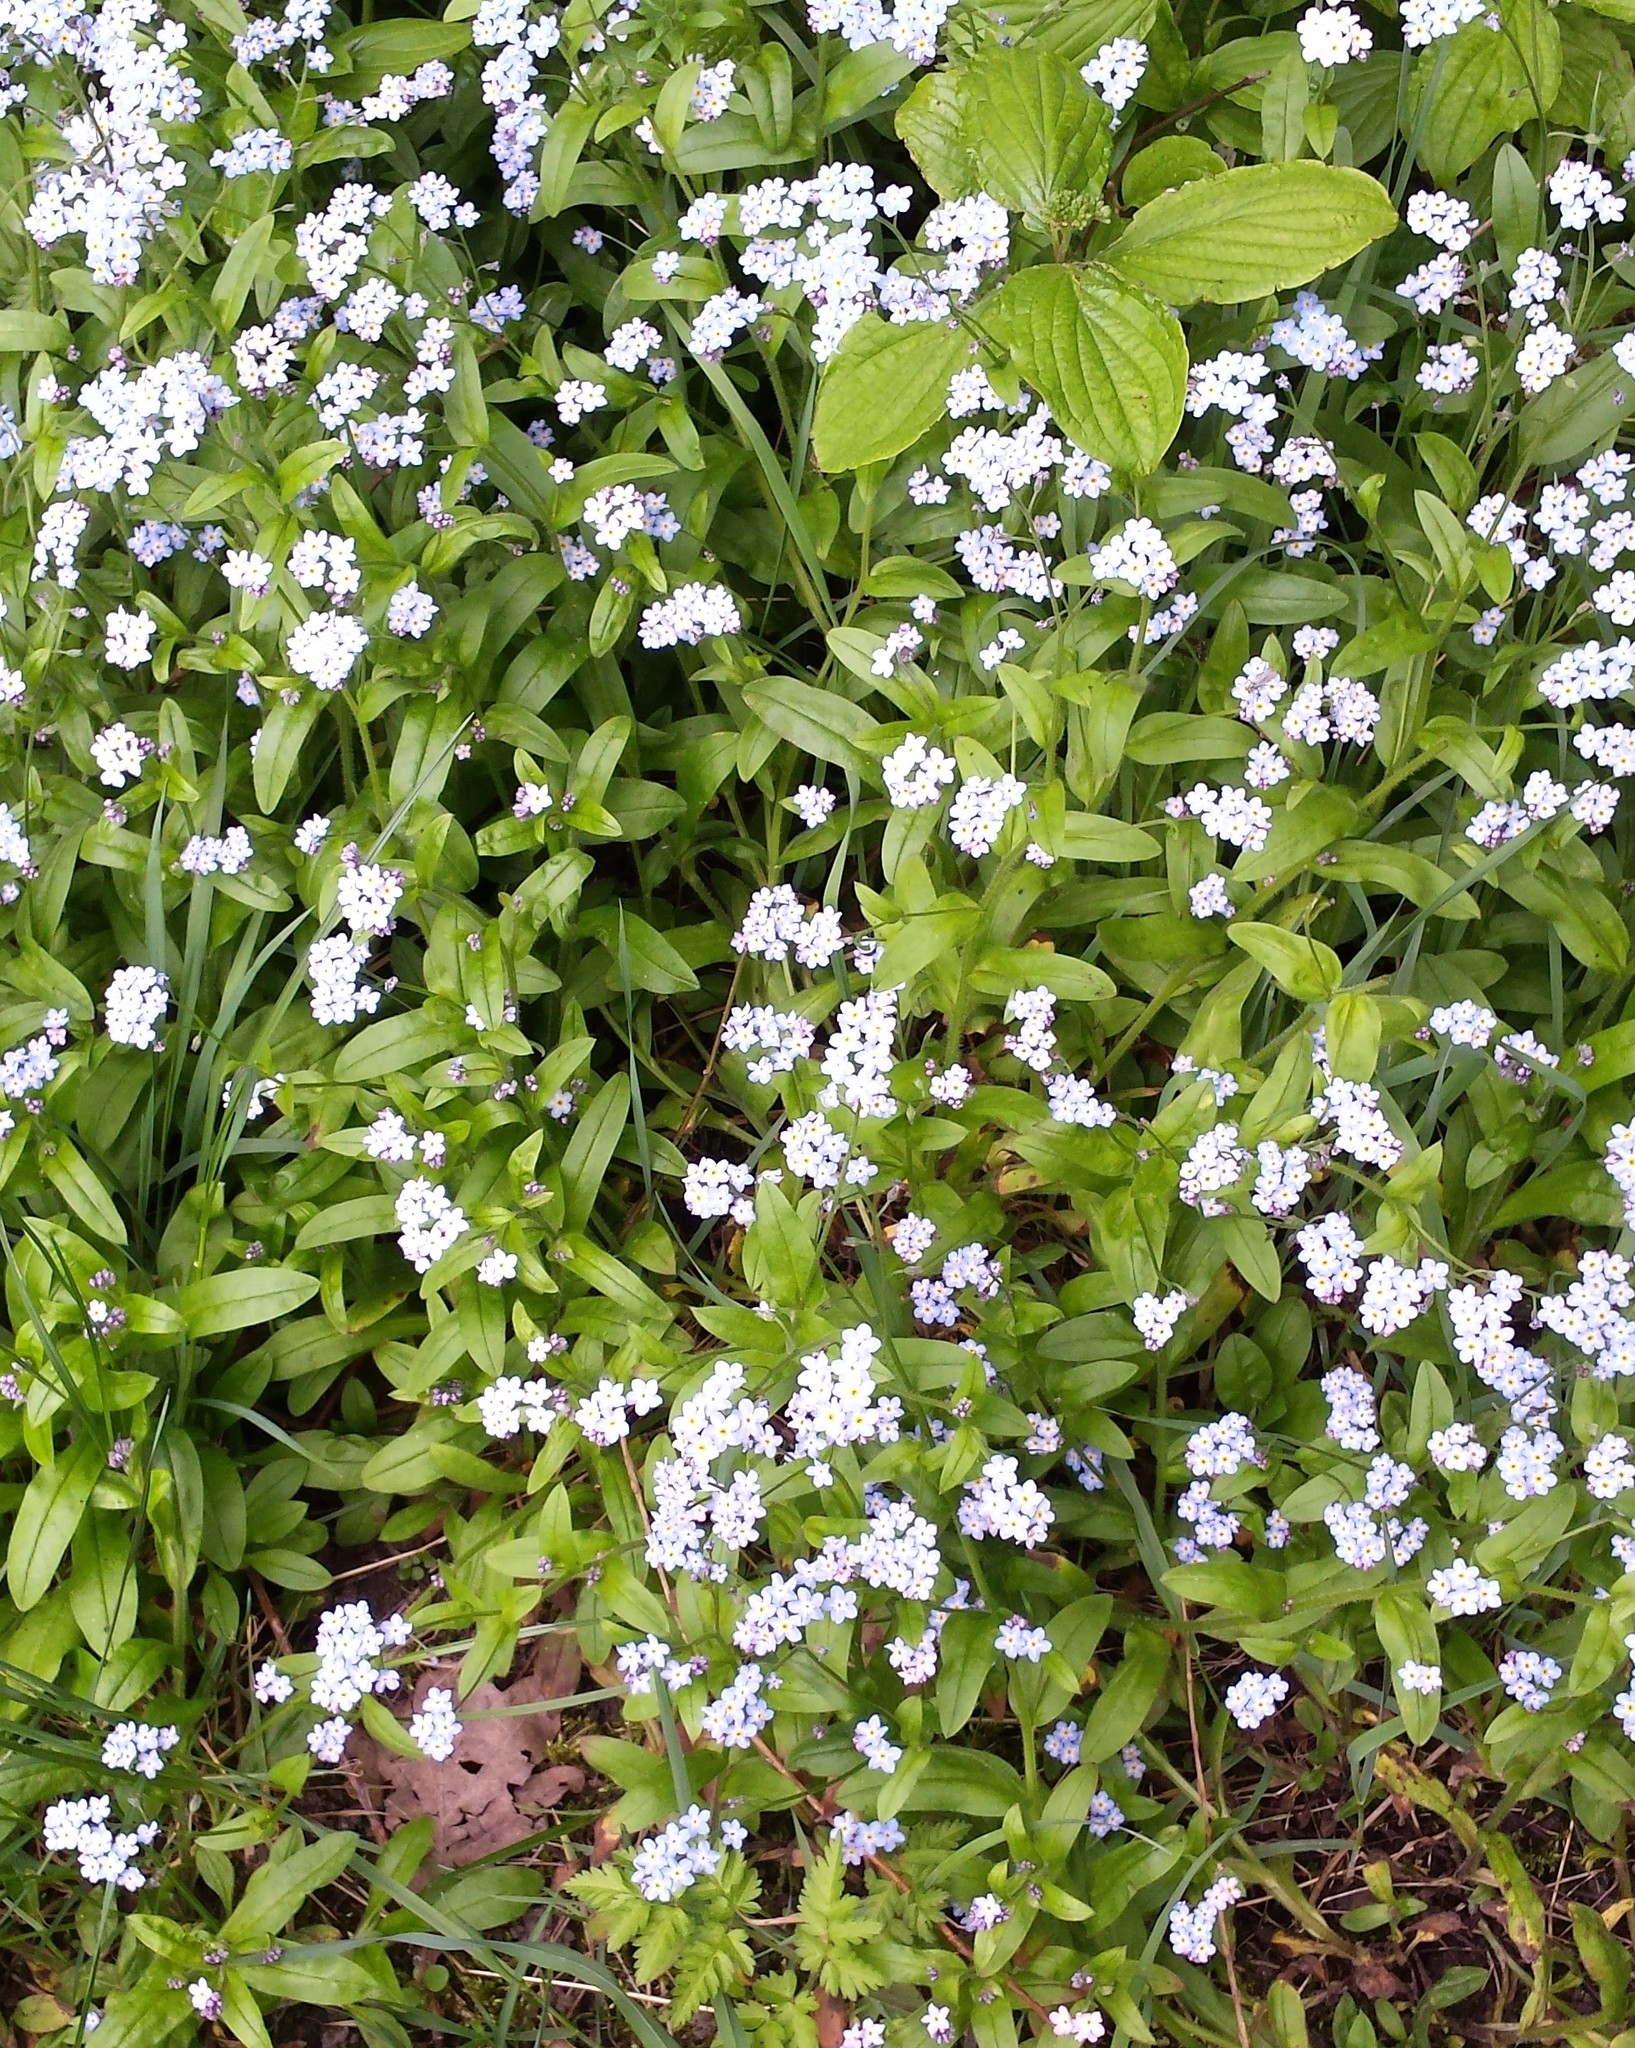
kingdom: Plantae
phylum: Tracheophyta
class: Magnoliopsida
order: Boraginales
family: Boraginaceae
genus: Myosotis
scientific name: Myosotis sylvatica
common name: Wood forget-me-not
